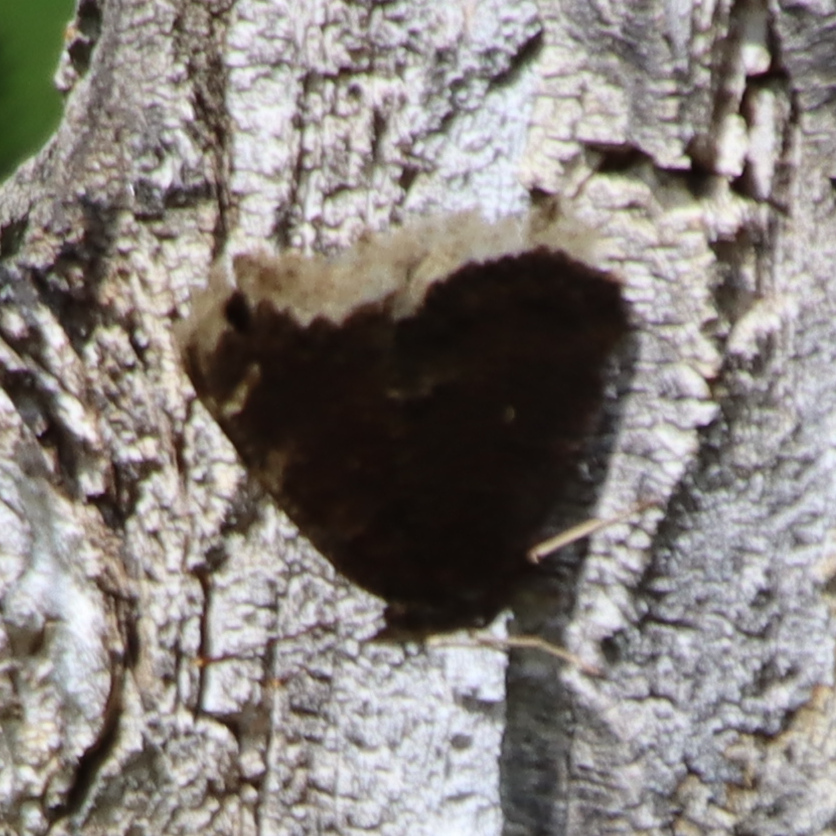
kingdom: Animalia
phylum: Arthropoda
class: Insecta
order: Lepidoptera
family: Nymphalidae
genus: Nymphalis
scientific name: Nymphalis antiopa
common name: Camberwell beauty
